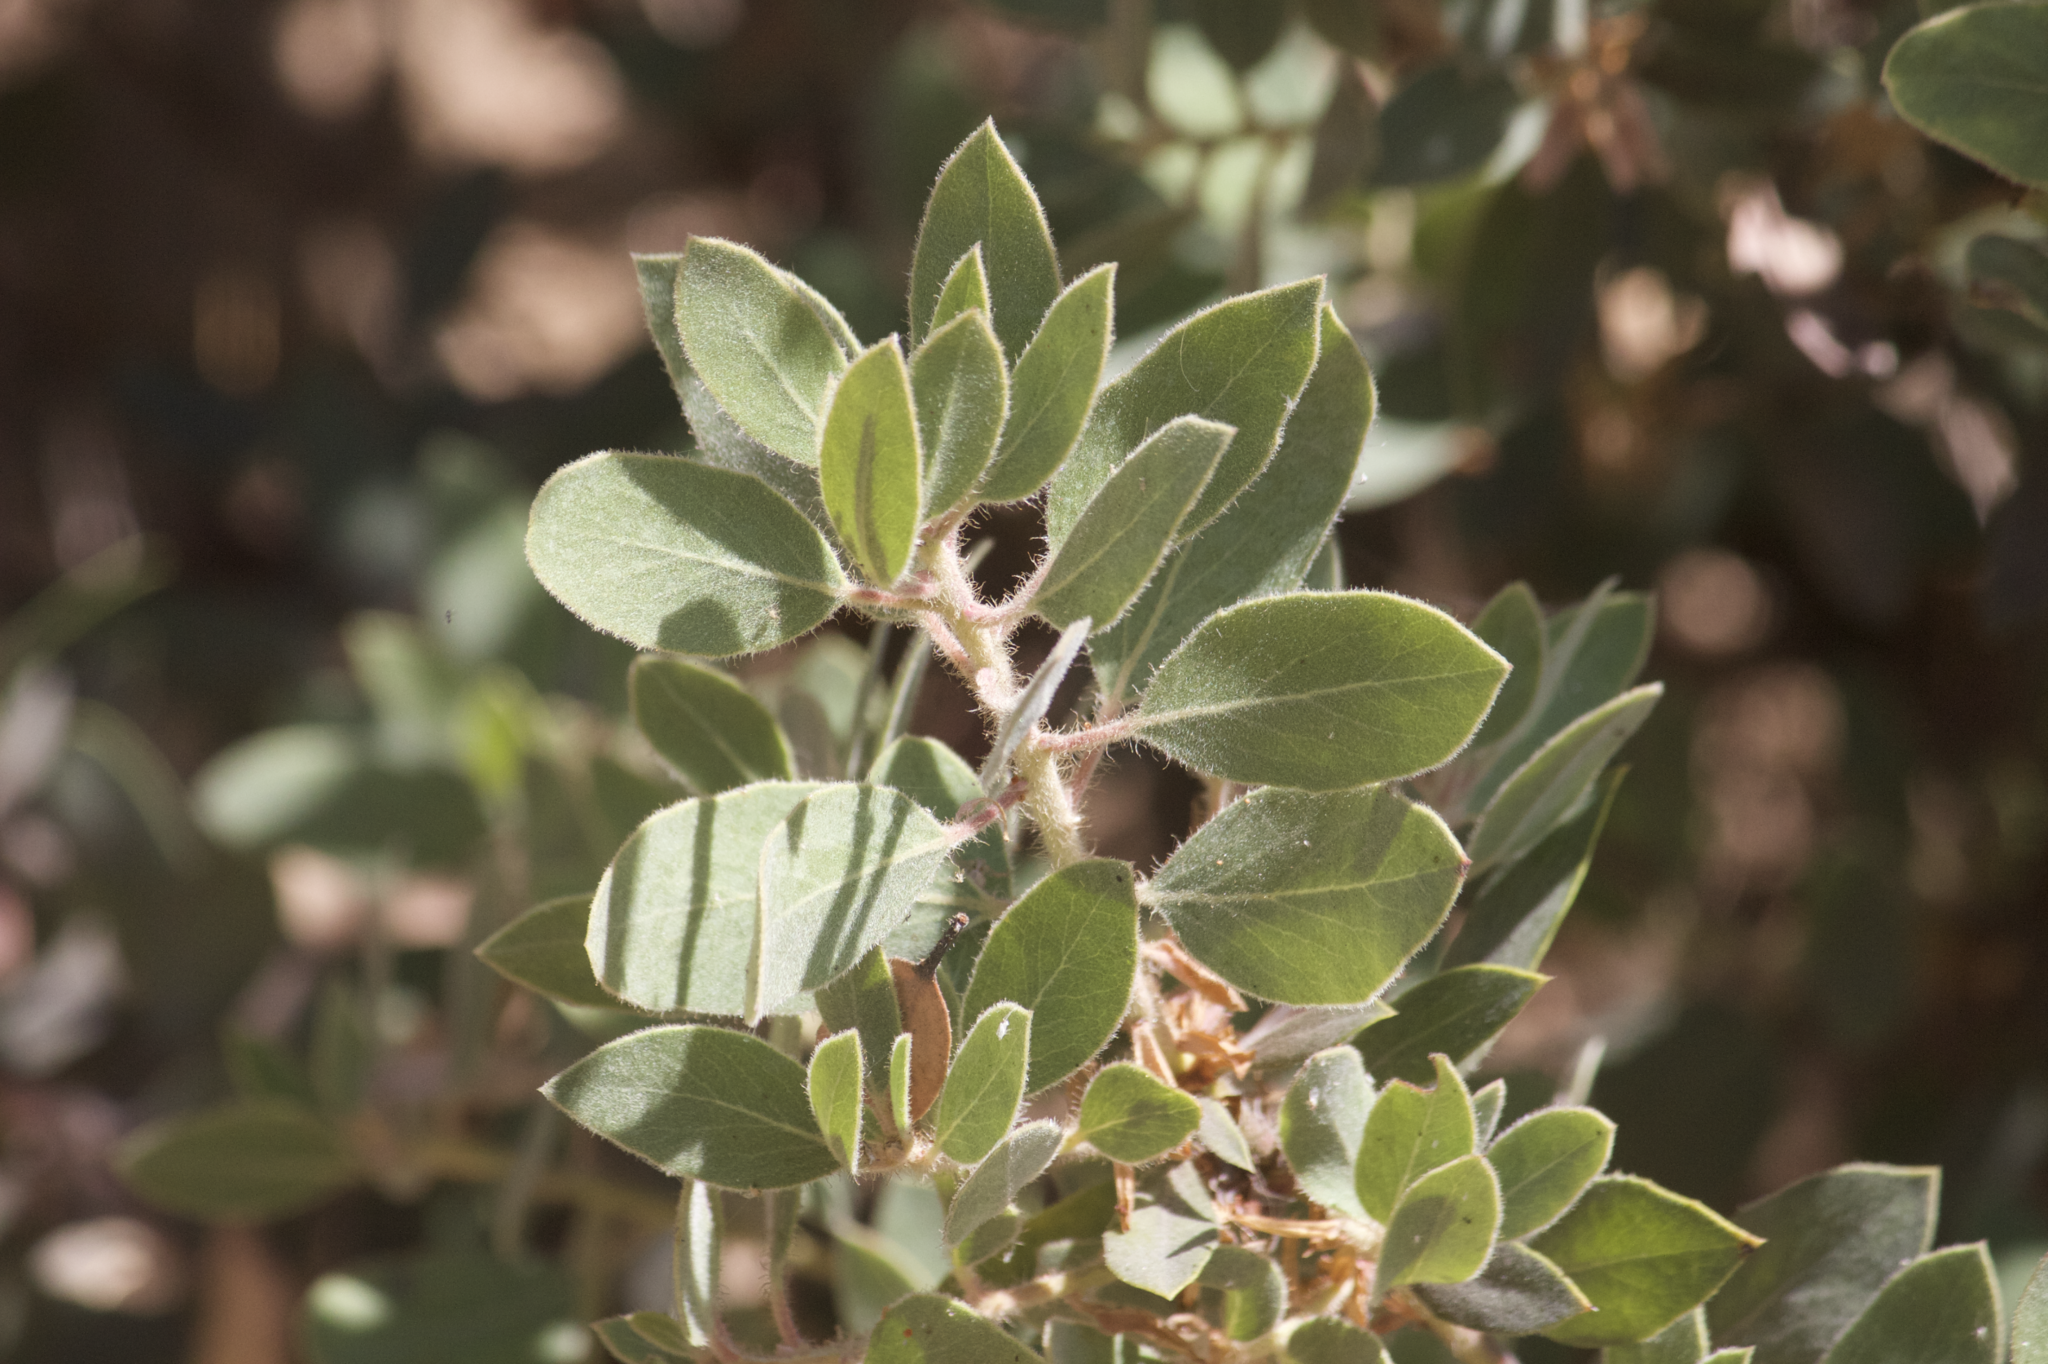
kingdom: Plantae
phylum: Tracheophyta
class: Magnoliopsida
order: Ericales
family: Ericaceae
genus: Arctostaphylos
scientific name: Arctostaphylos glandulosa
